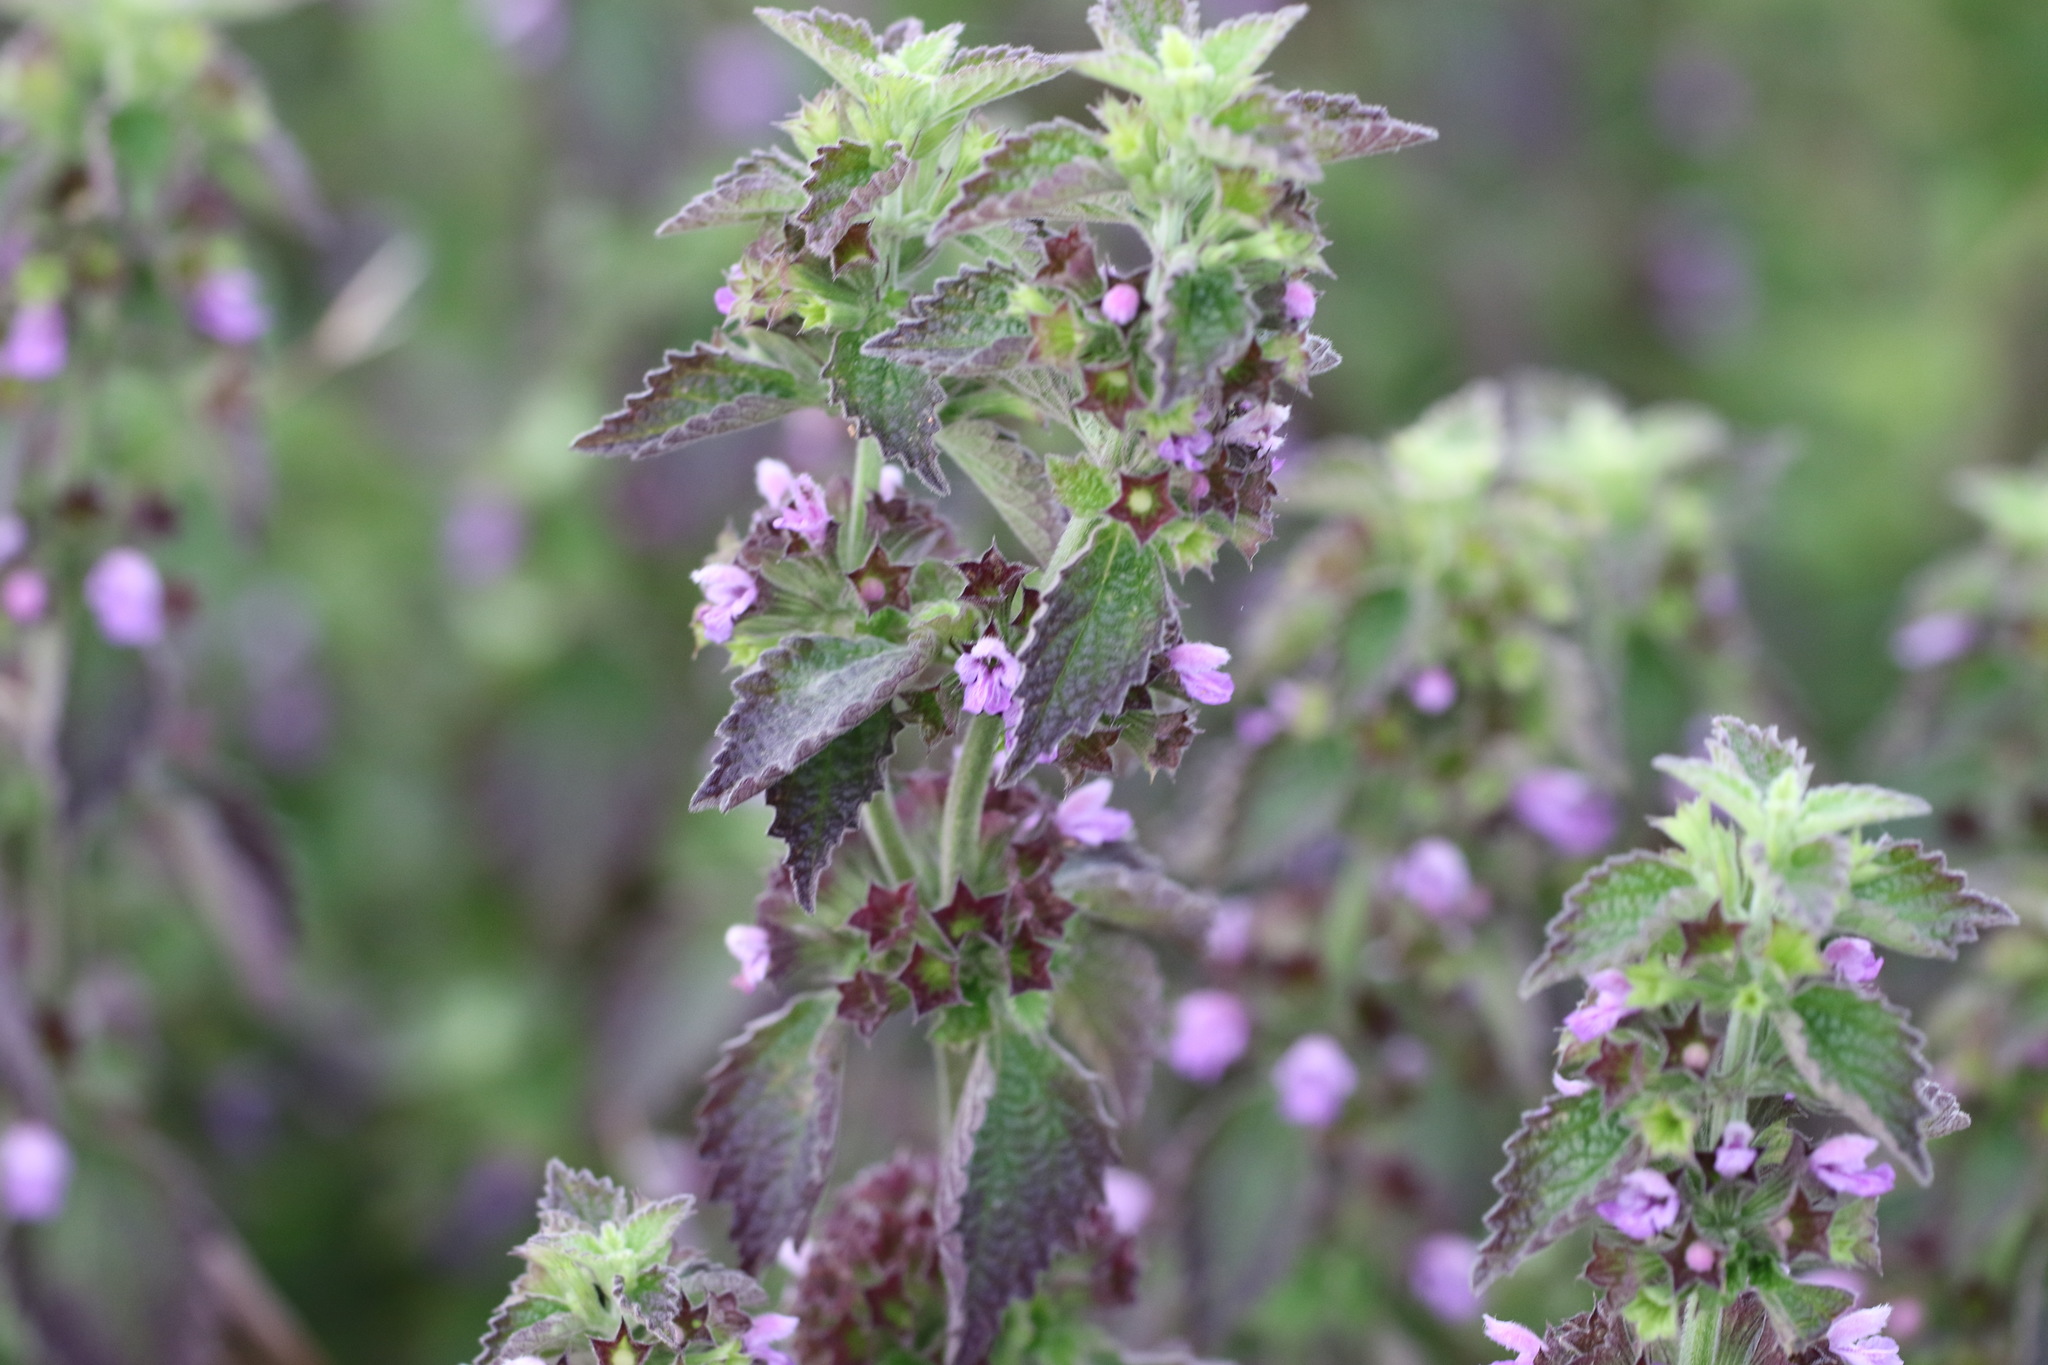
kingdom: Plantae
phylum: Tracheophyta
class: Magnoliopsida
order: Lamiales
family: Lamiaceae
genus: Ballota
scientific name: Ballota nigra
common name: Black horehound
